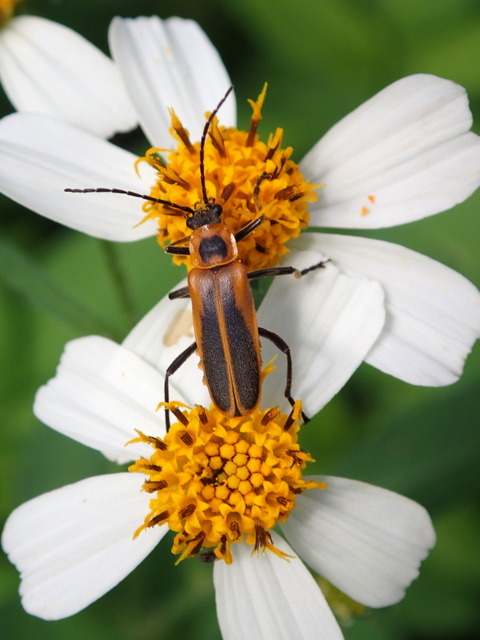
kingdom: Animalia
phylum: Arthropoda
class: Insecta
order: Coleoptera
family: Cantharidae
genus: Chauliognathus
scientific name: Chauliognathus pensylvanicus
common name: Goldenrod soldier beetle
